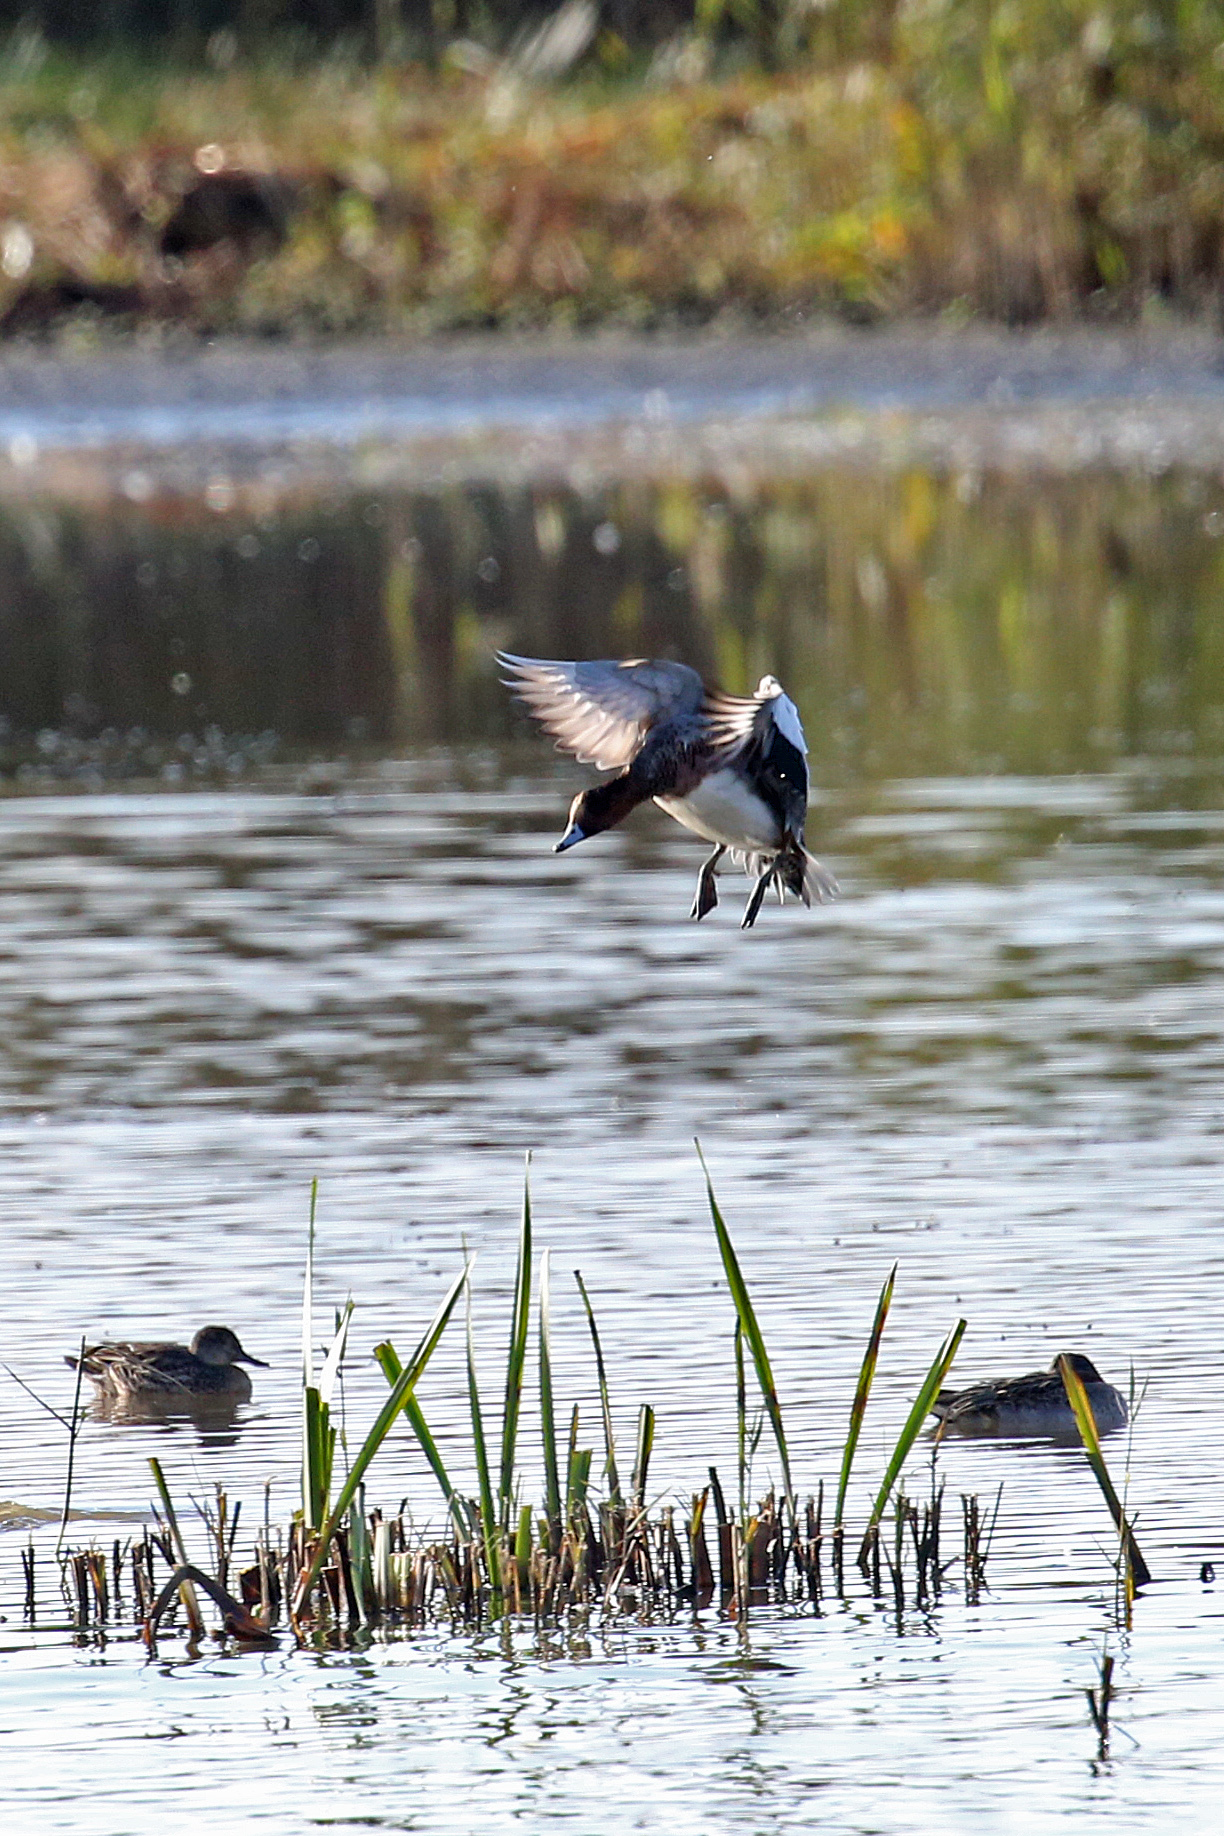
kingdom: Animalia
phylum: Chordata
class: Aves
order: Anseriformes
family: Anatidae
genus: Mareca
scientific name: Mareca penelope
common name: Eurasian wigeon
